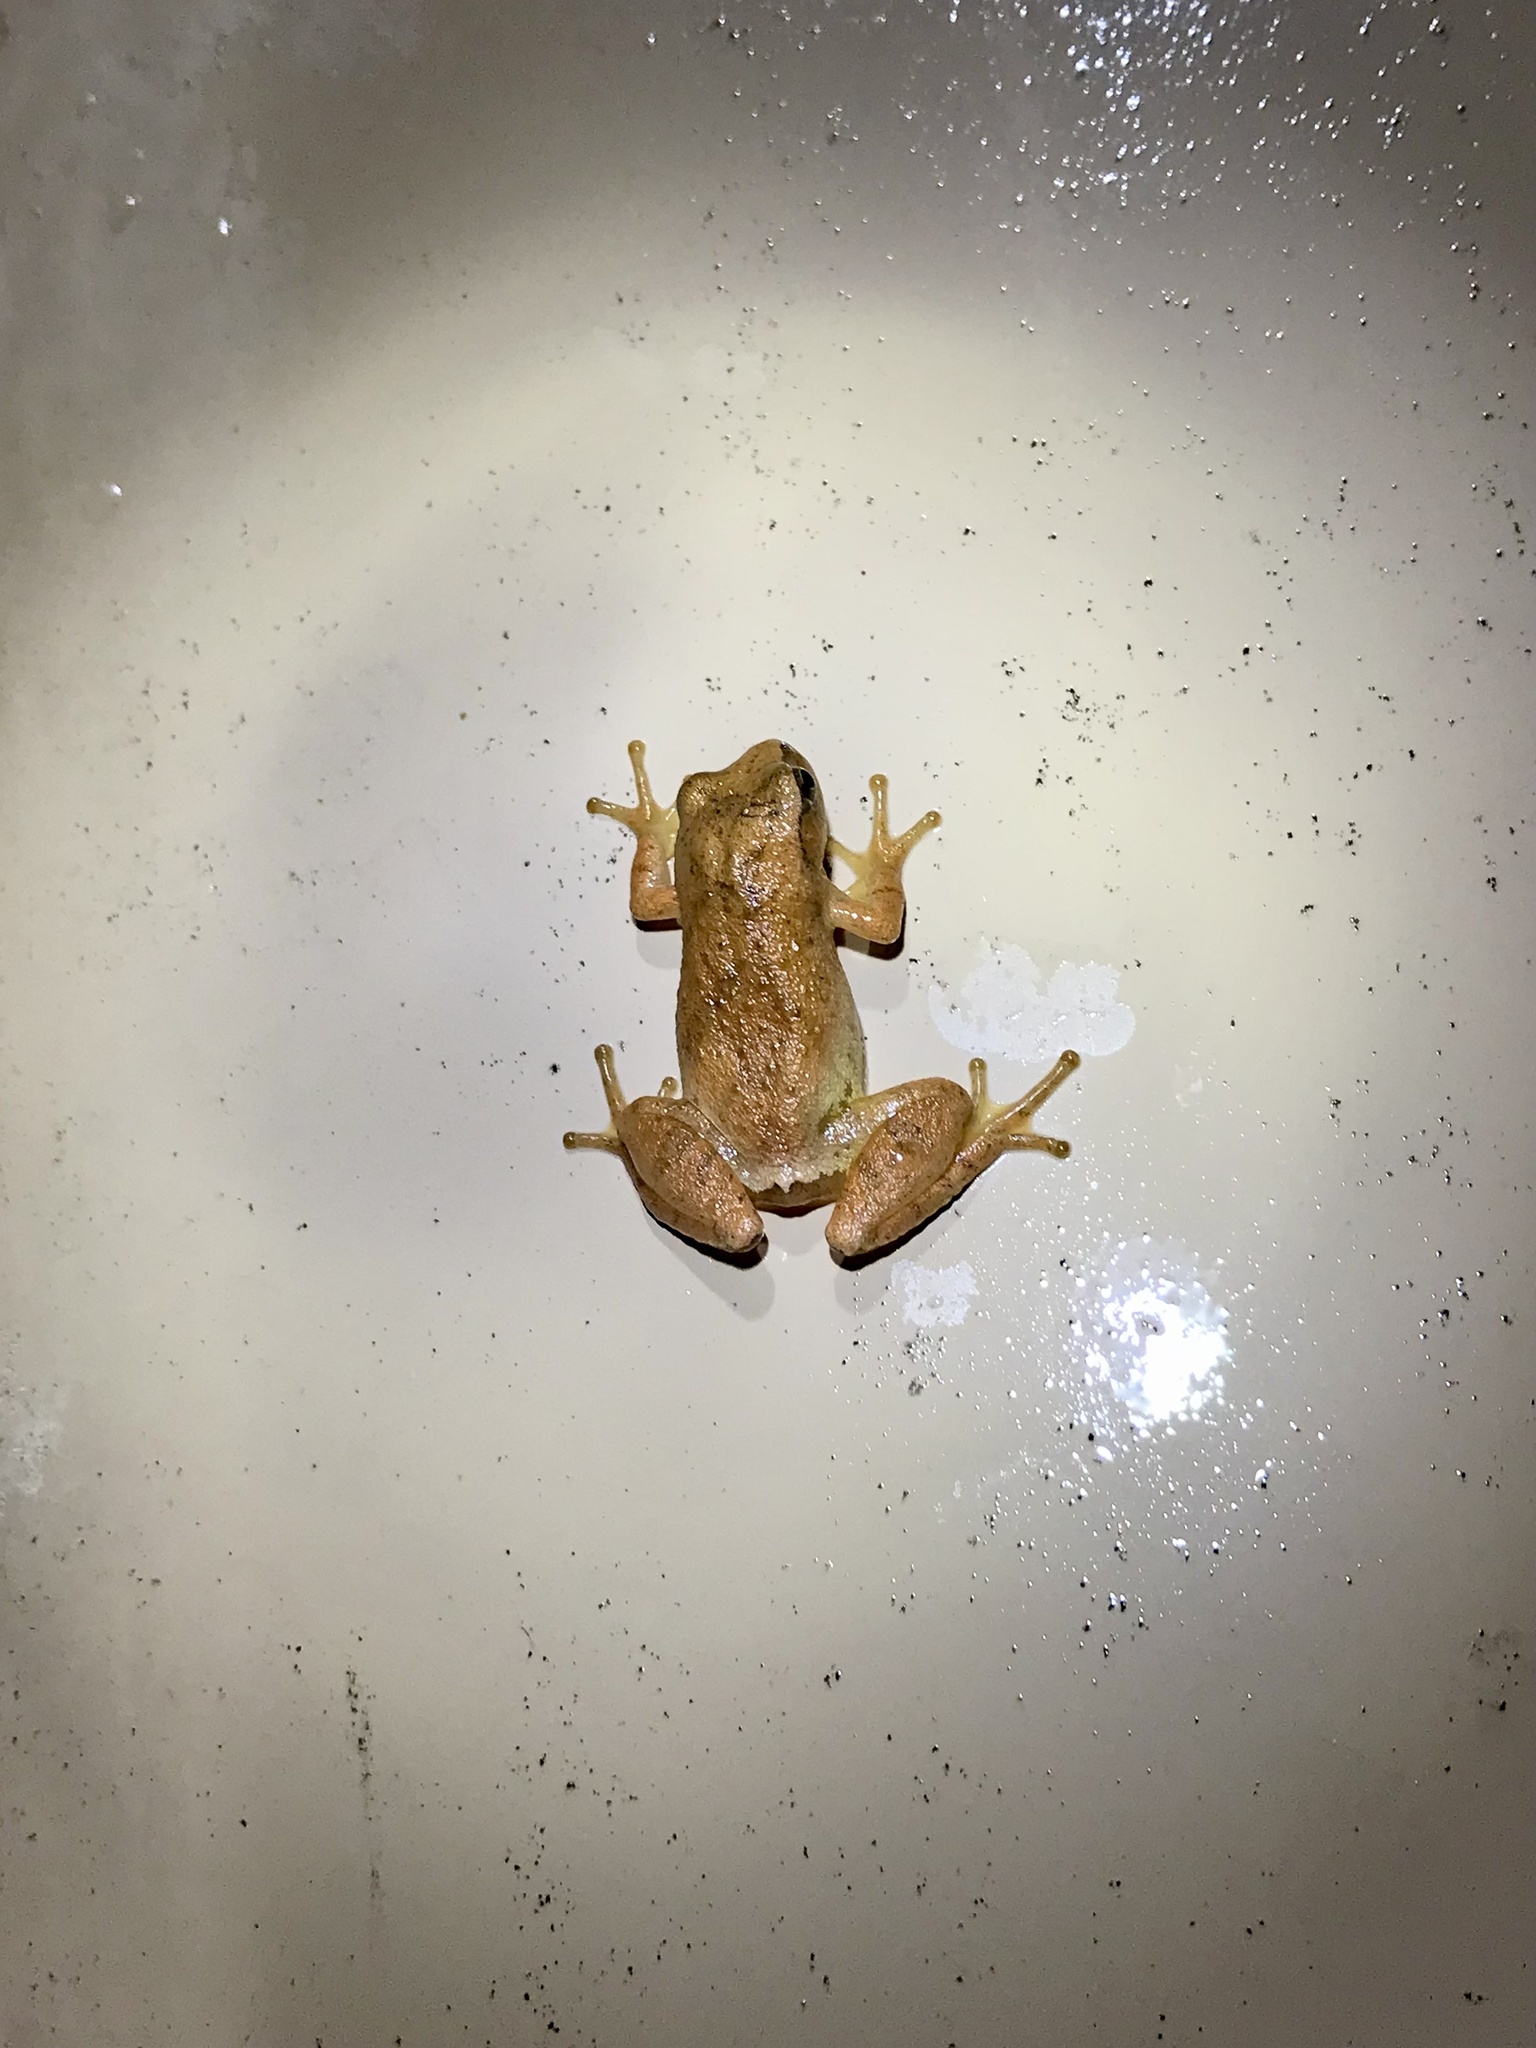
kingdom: Animalia
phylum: Chordata
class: Amphibia
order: Anura
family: Hylidae
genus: Pseudacris
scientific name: Pseudacris crucifer
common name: Spring peeper
